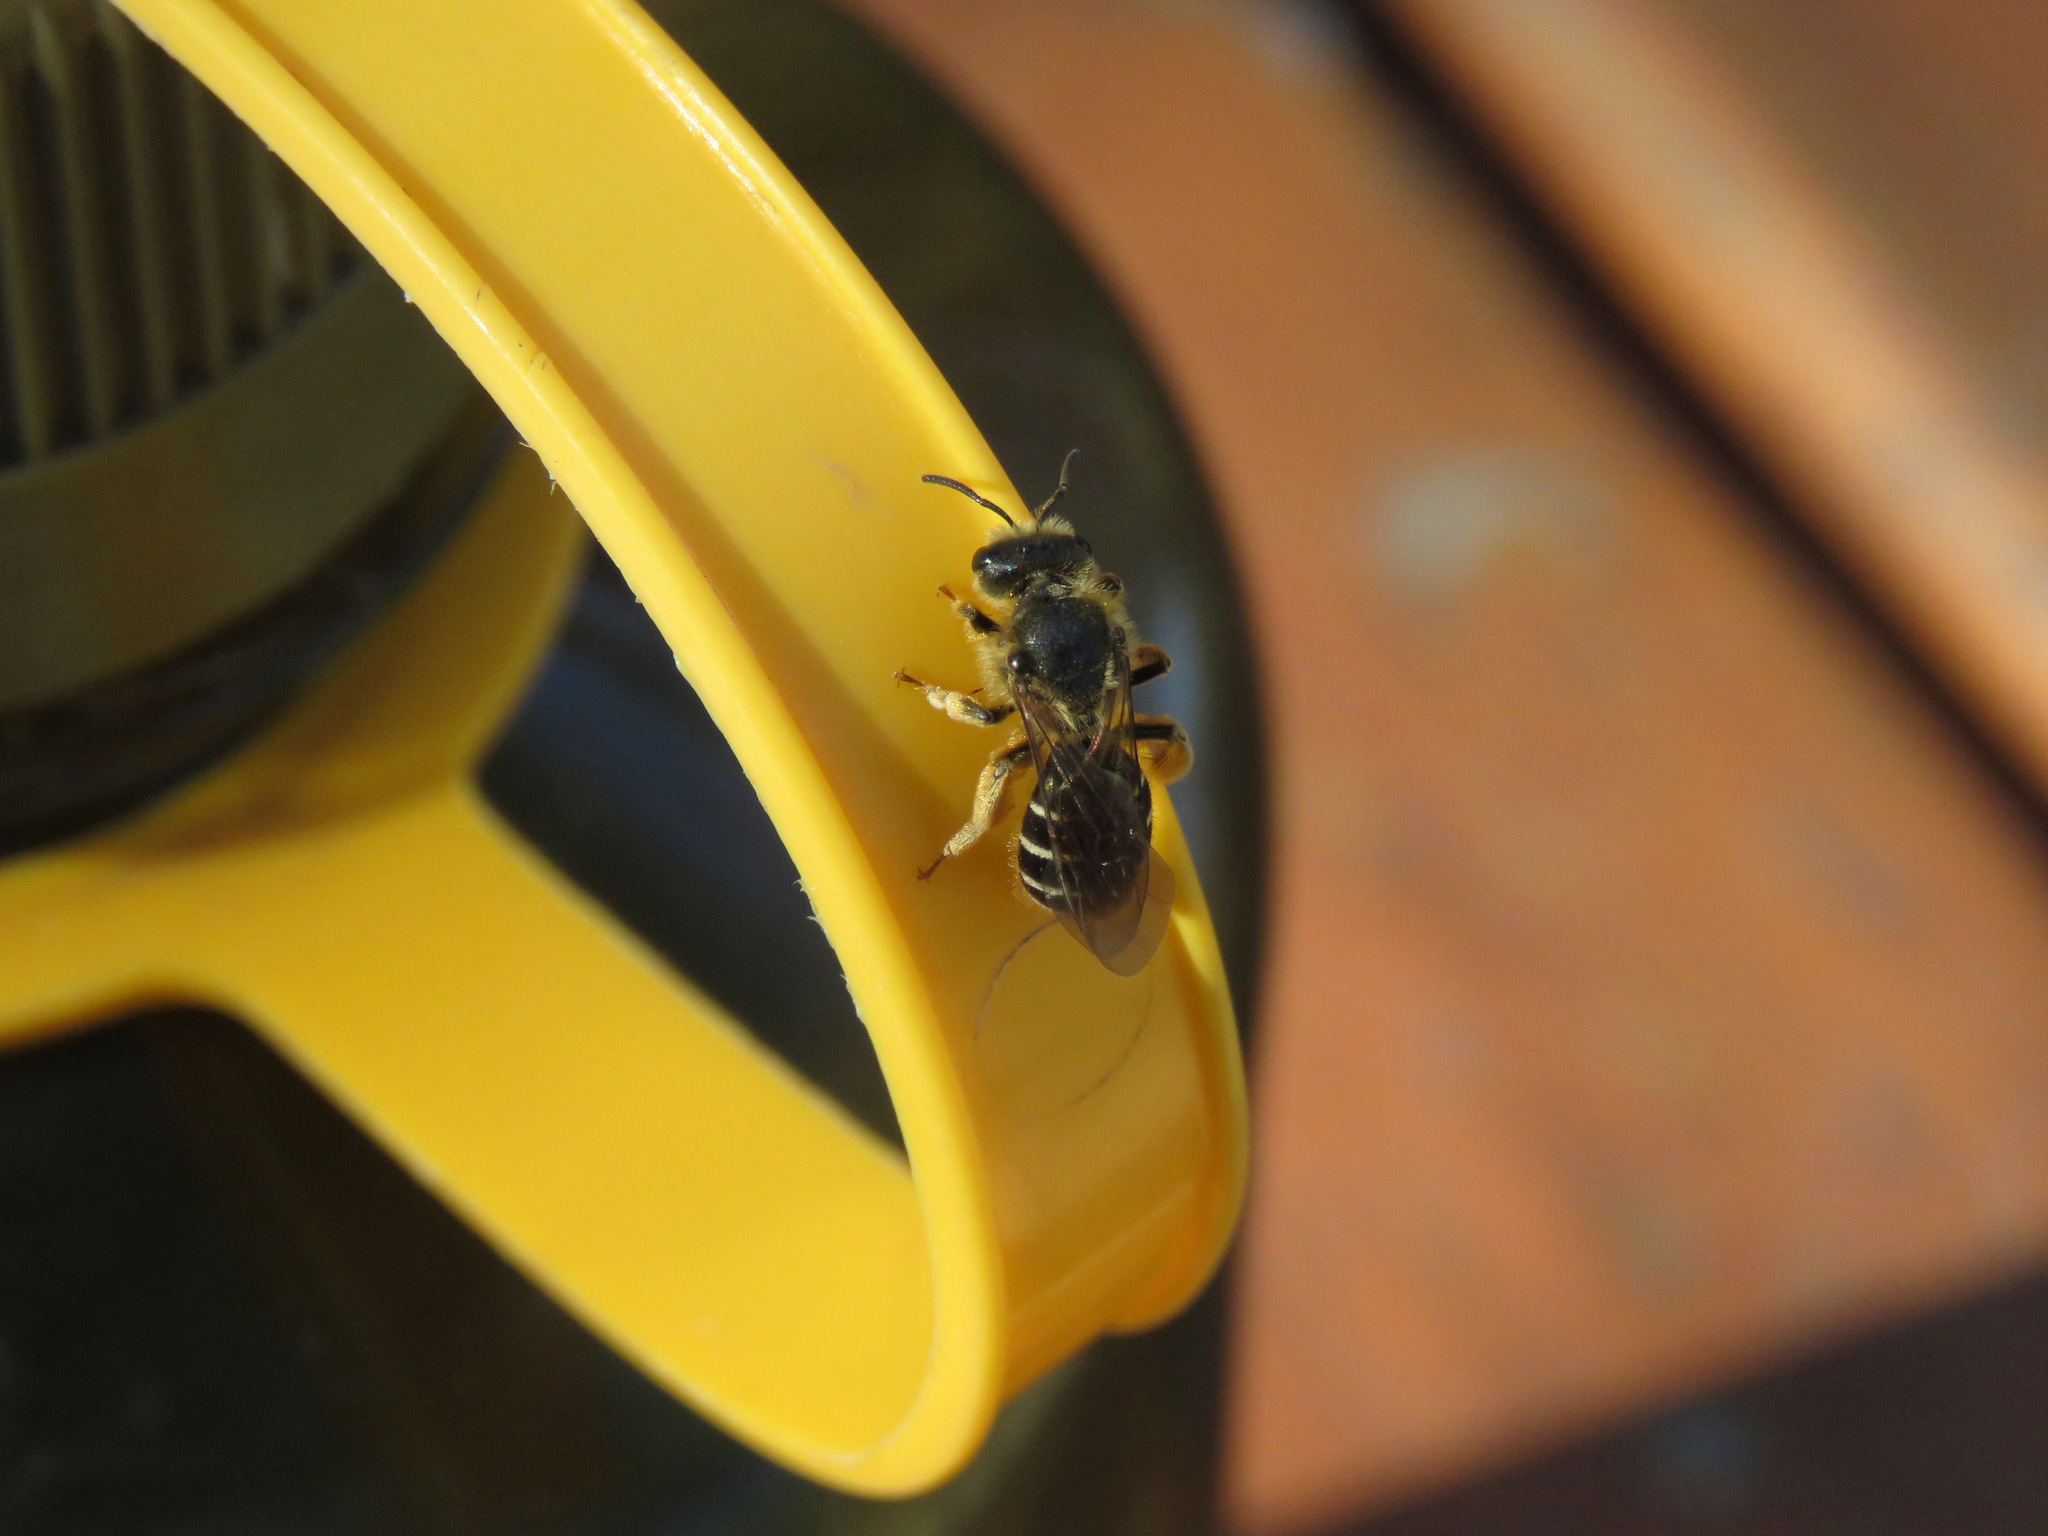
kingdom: Animalia
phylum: Arthropoda
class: Insecta
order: Hymenoptera
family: Halictidae
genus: Halictus
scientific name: Halictus rubicundus
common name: Orange-legged furrow bee
